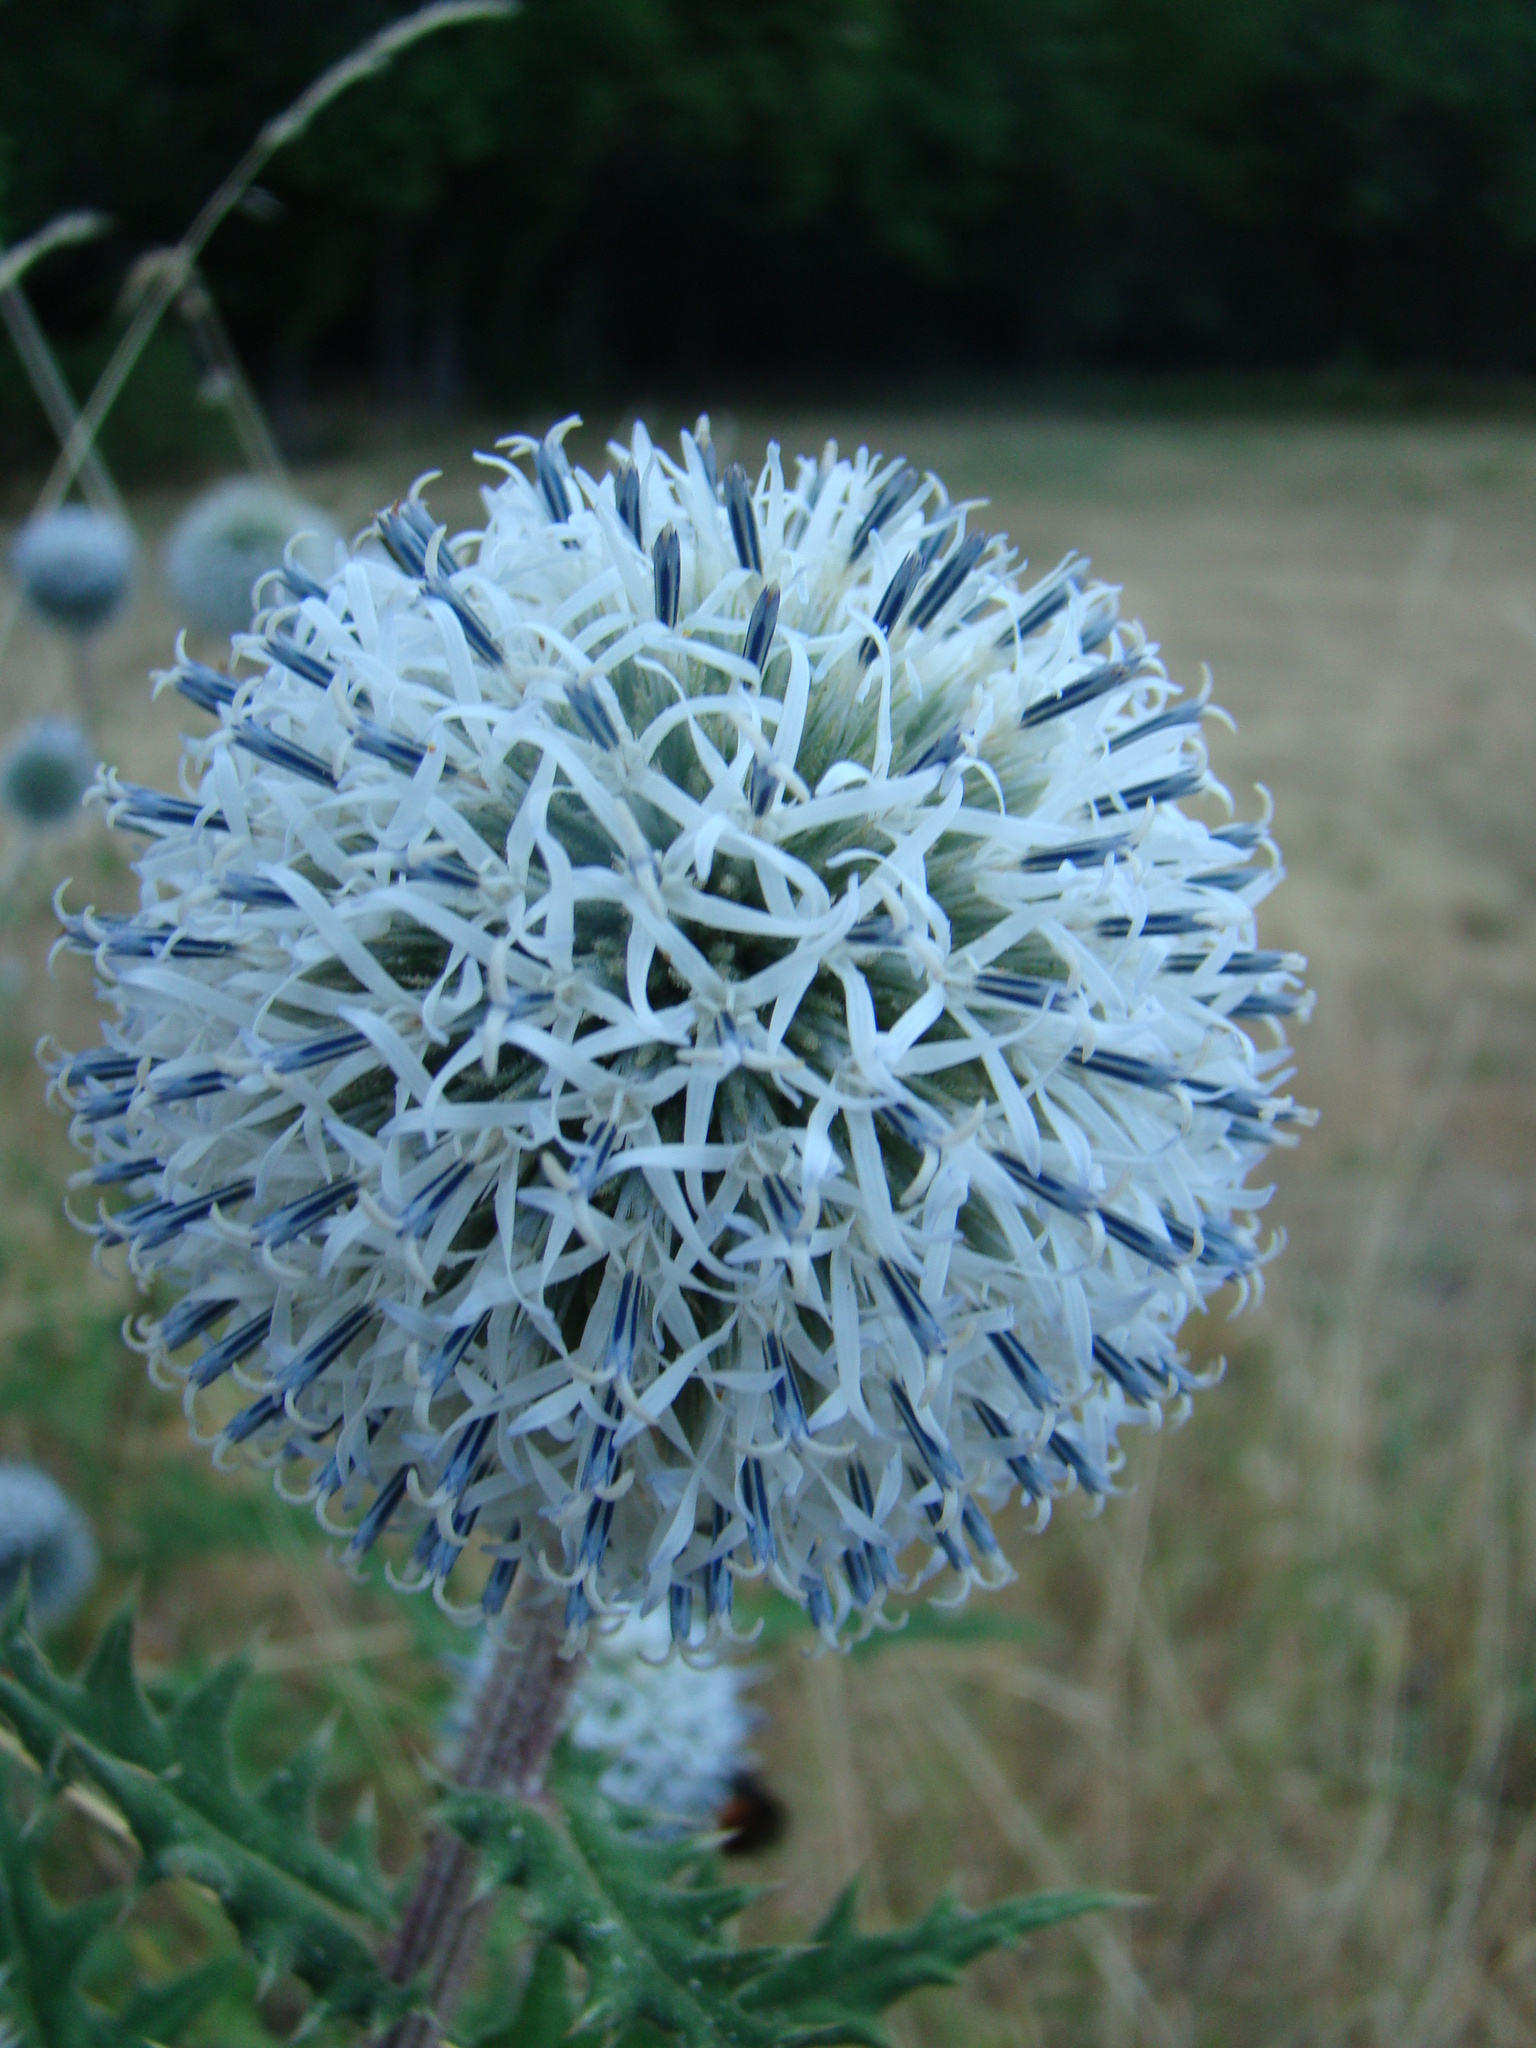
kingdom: Plantae
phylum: Tracheophyta
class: Magnoliopsida
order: Asterales
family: Asteraceae
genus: Echinops
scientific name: Echinops sphaerocephalus
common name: Glandular globe-thistle
